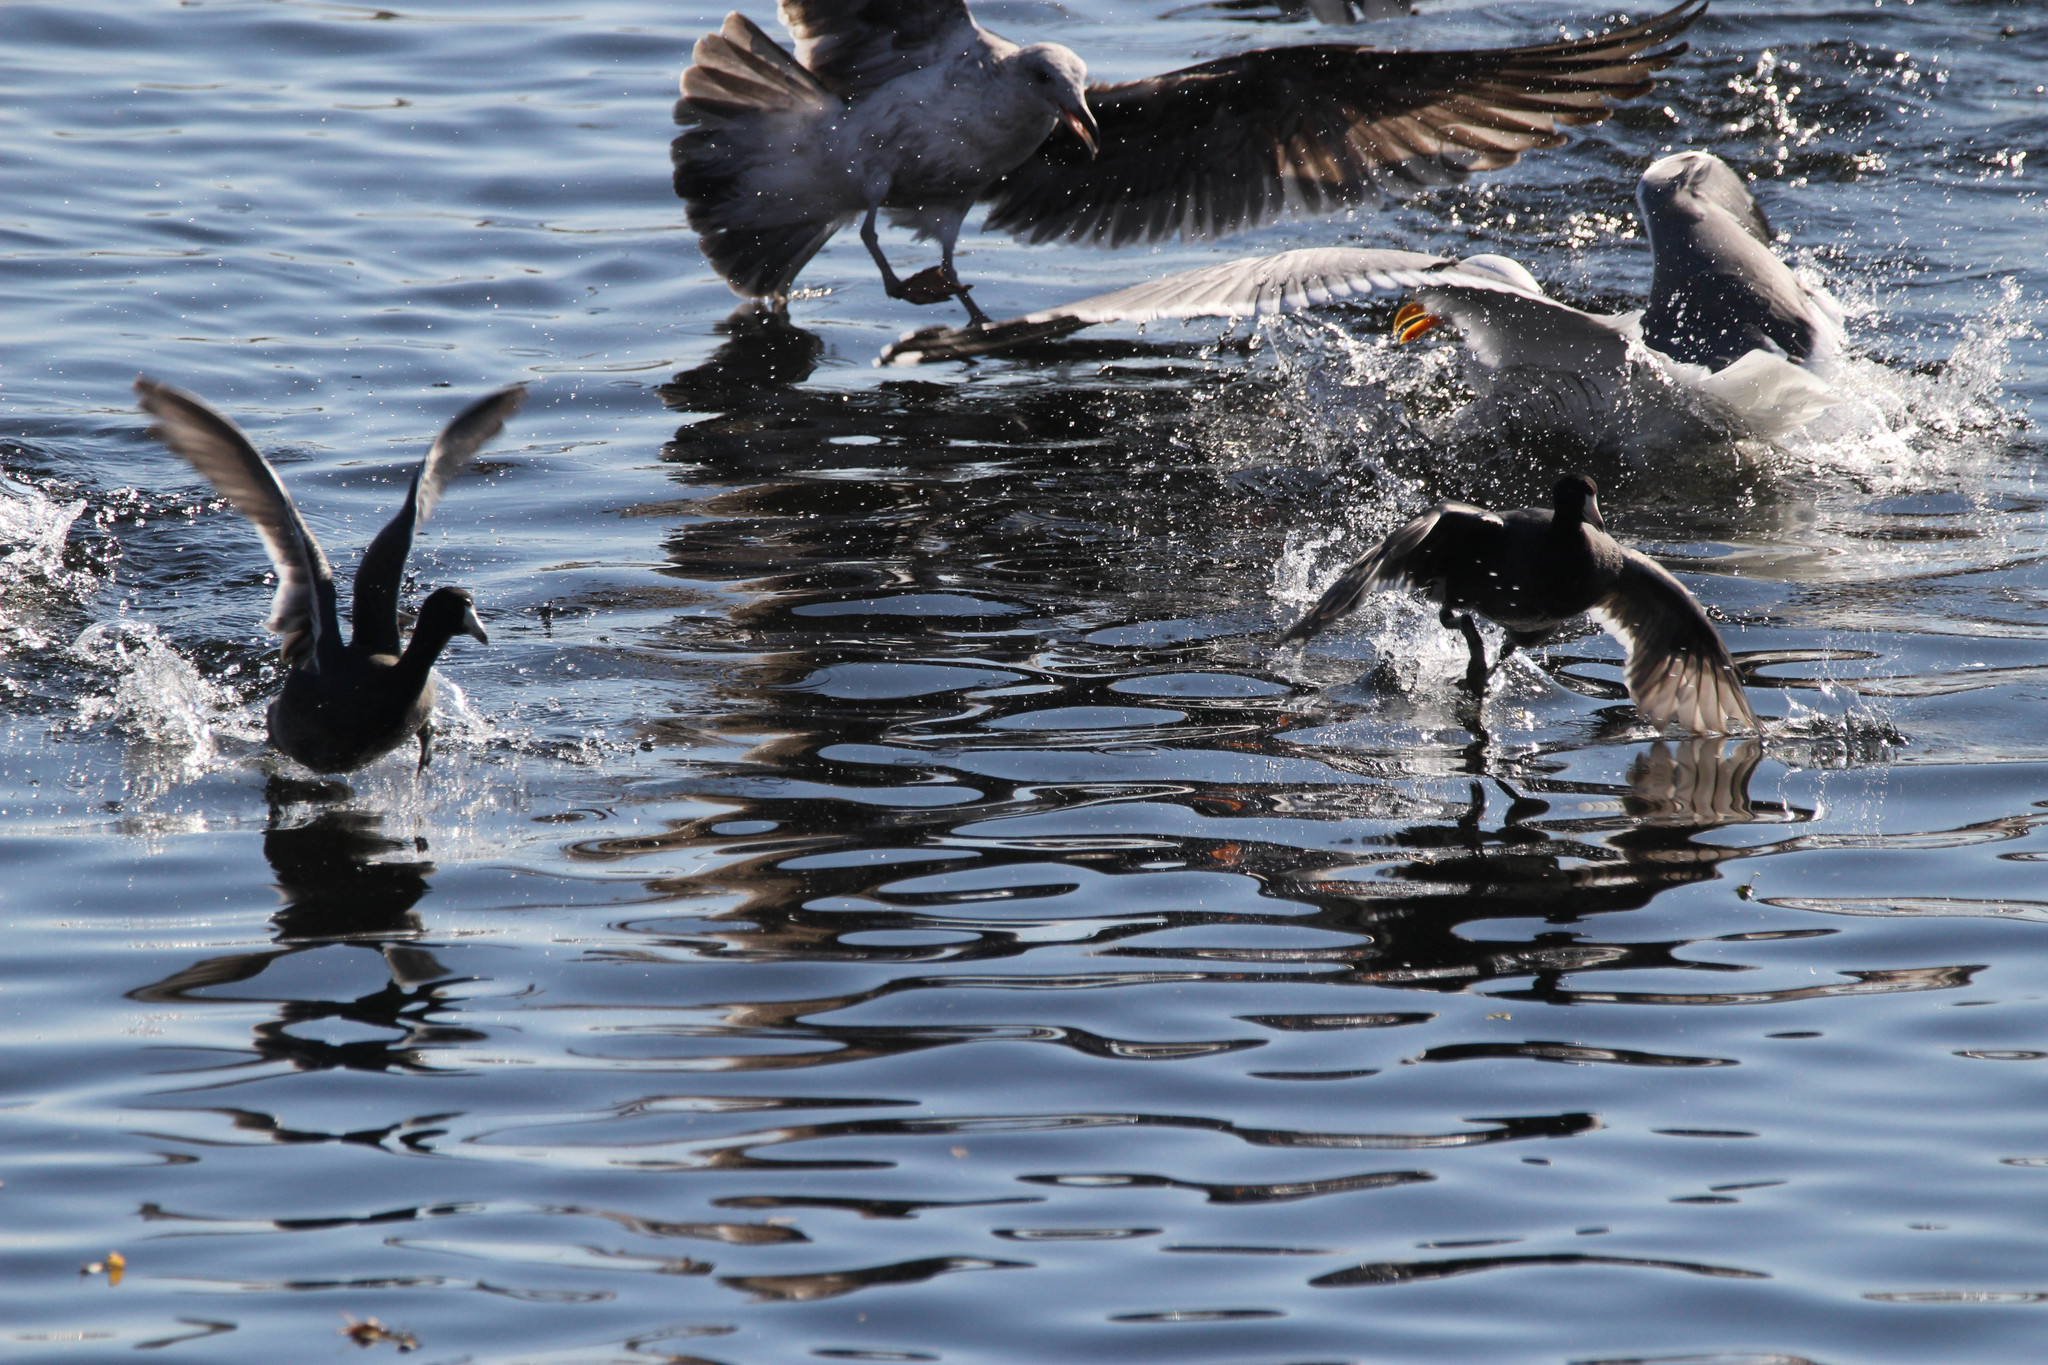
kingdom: Animalia
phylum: Chordata
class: Aves
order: Gruiformes
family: Rallidae
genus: Fulica
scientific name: Fulica americana
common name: American coot
